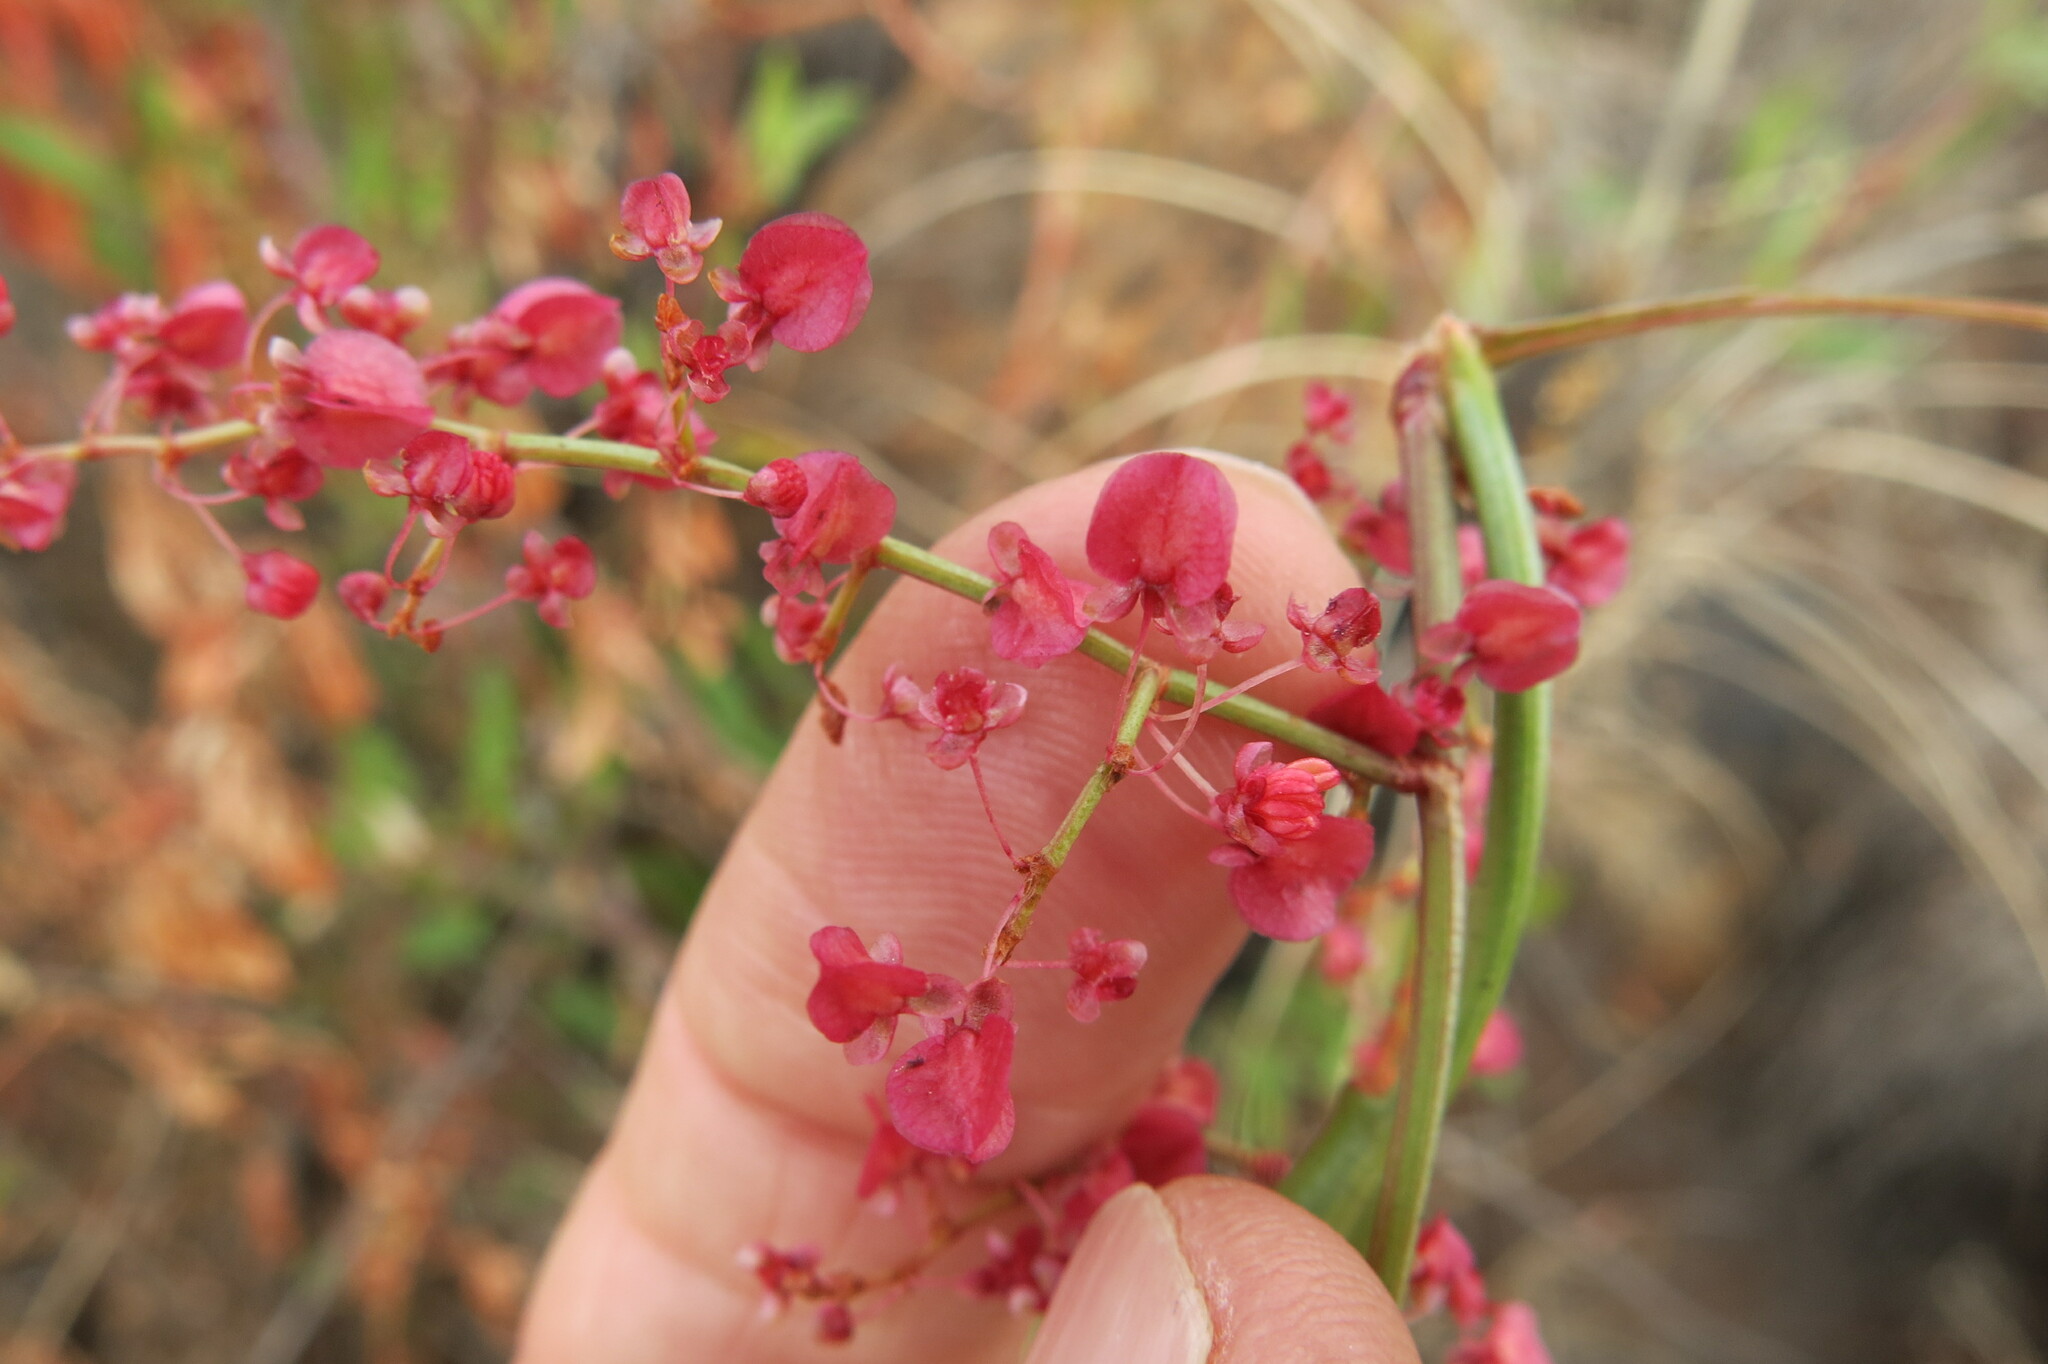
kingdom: Plantae
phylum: Tracheophyta
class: Magnoliopsida
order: Caryophyllales
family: Polygonaceae
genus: Rumex
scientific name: Rumex usambarensis
